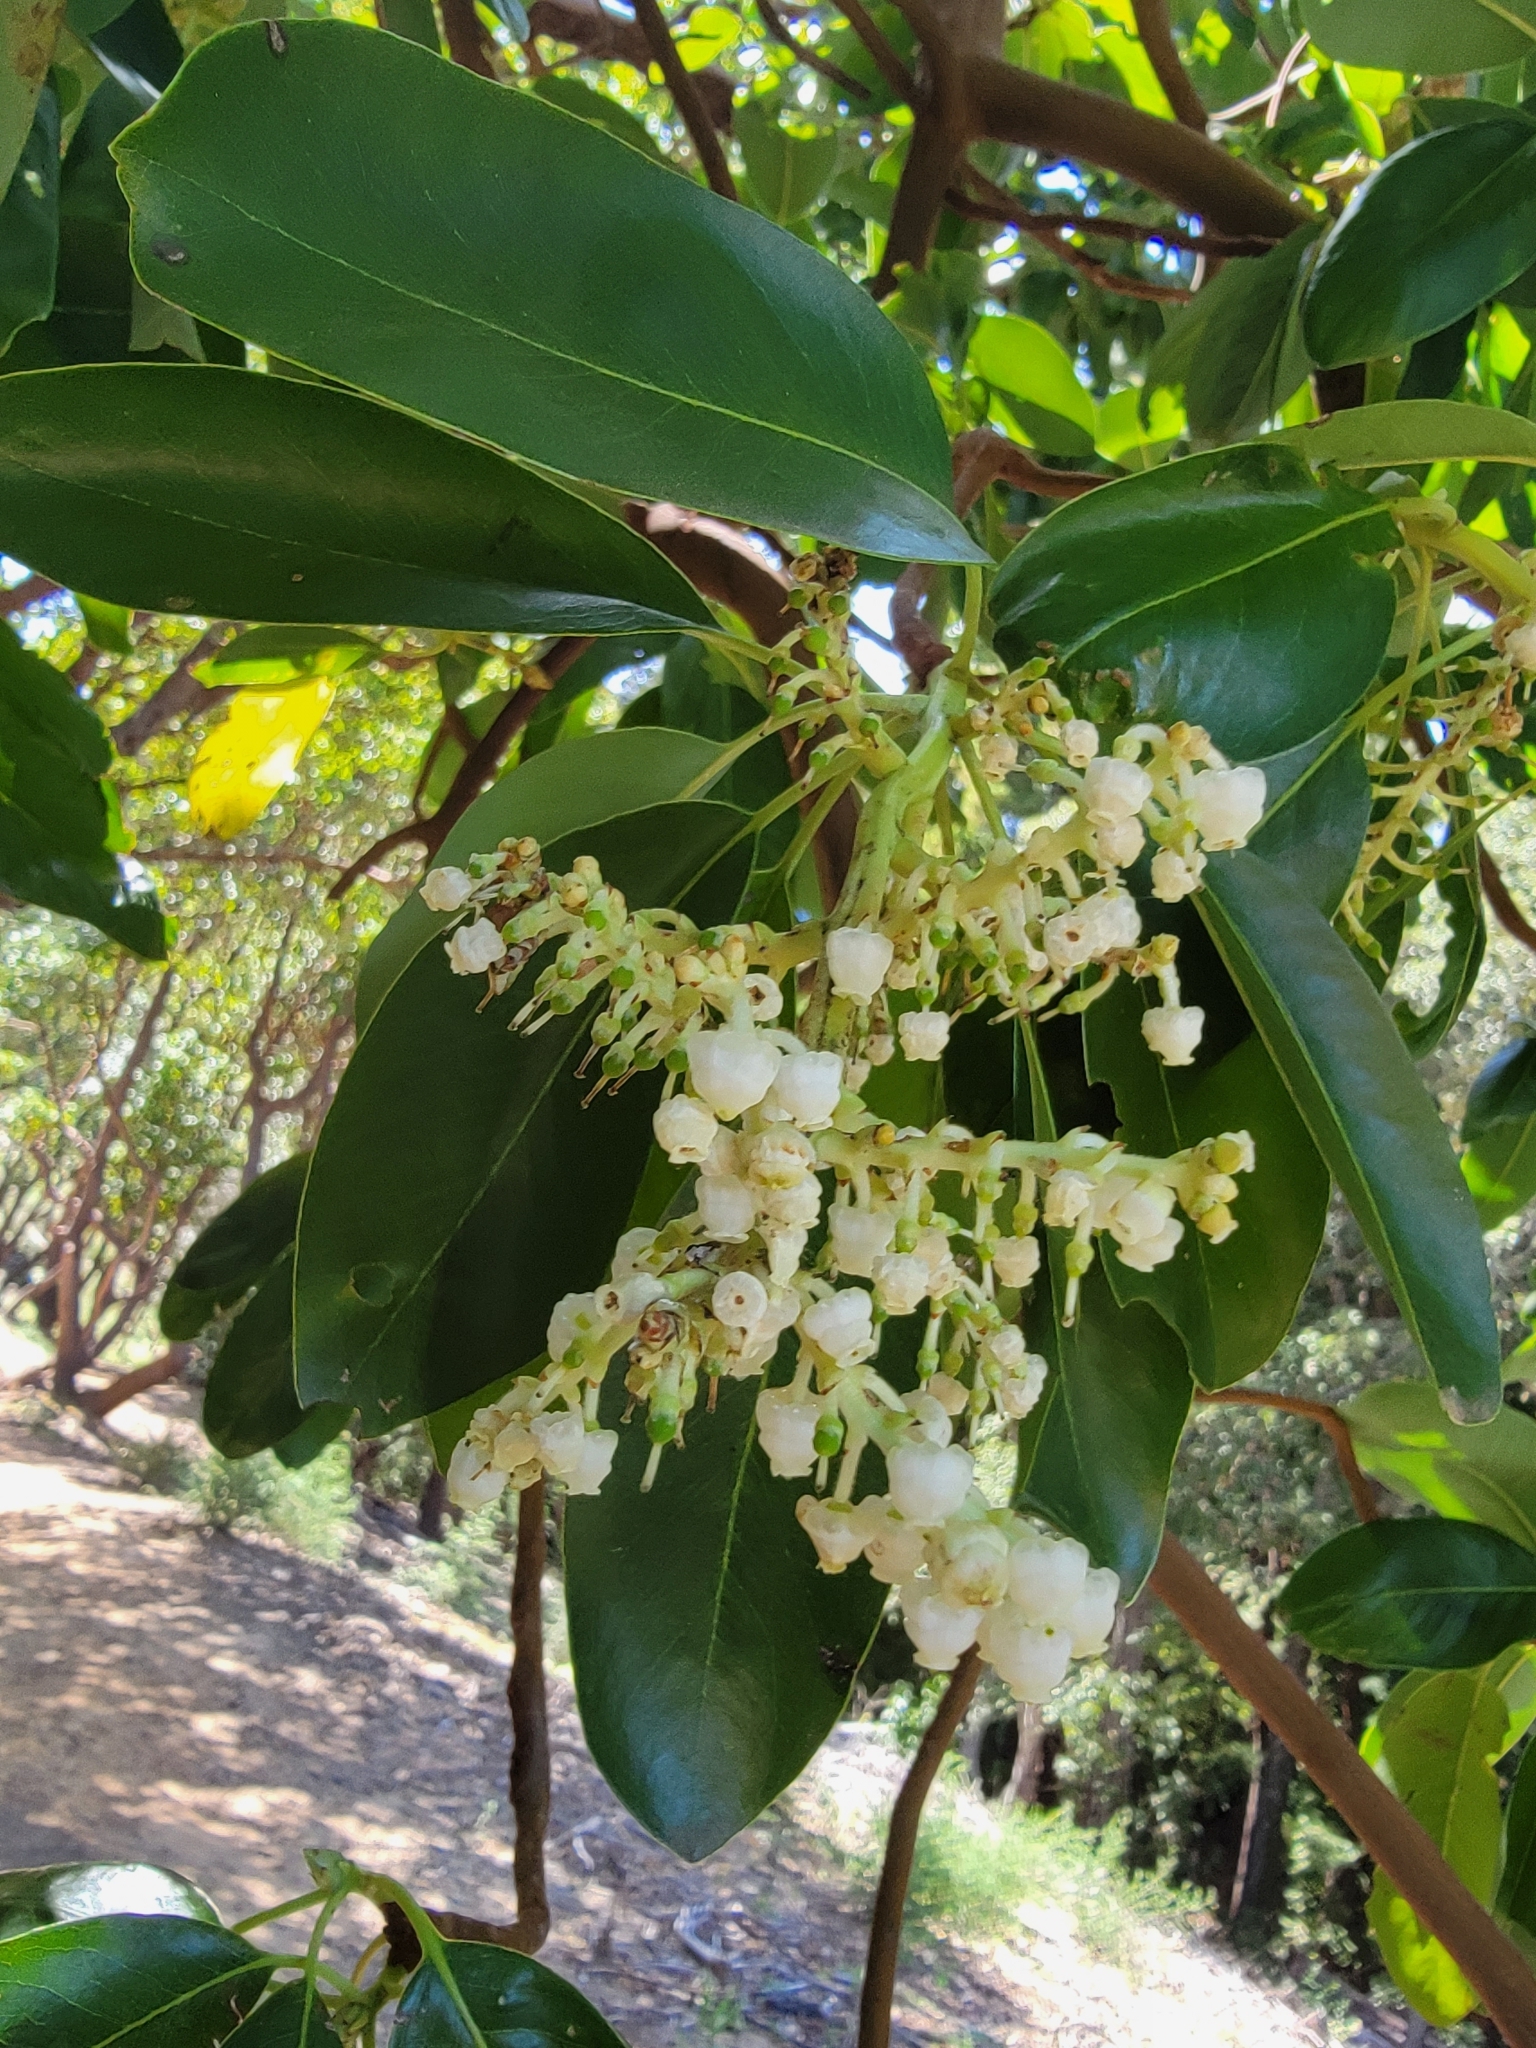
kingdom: Plantae
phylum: Tracheophyta
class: Magnoliopsida
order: Ericales
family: Ericaceae
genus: Arbutus
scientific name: Arbutus menziesii
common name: Pacific madrone
